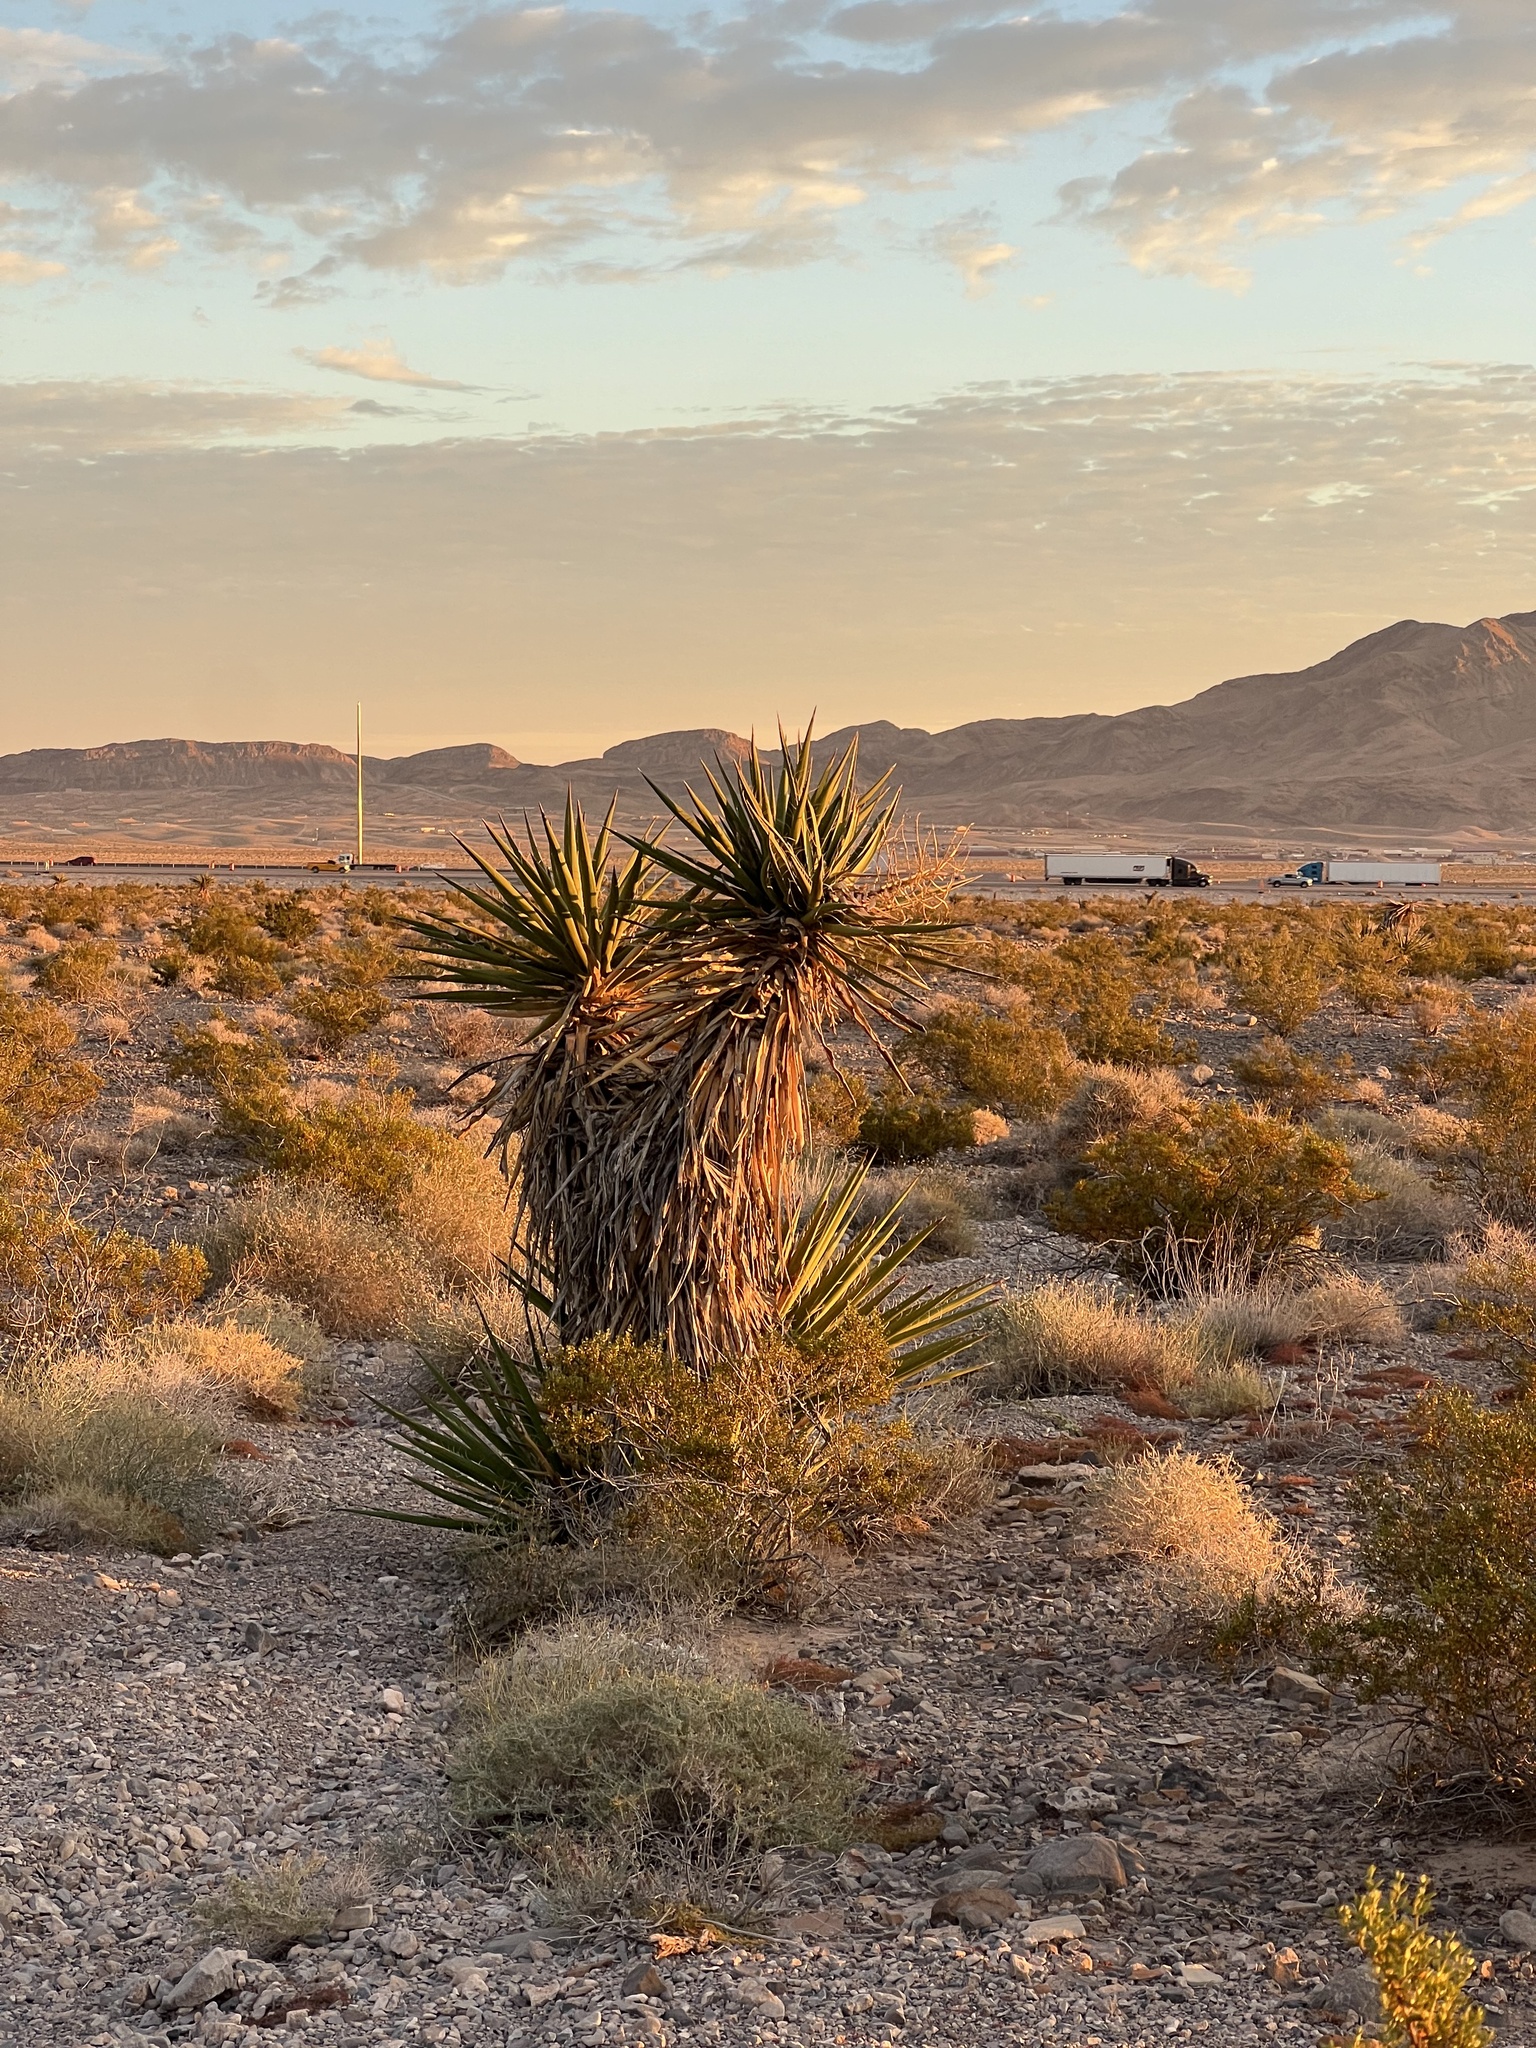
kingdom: Plantae
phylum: Tracheophyta
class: Liliopsida
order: Asparagales
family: Asparagaceae
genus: Yucca
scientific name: Yucca schidigera
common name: Mojave yucca
